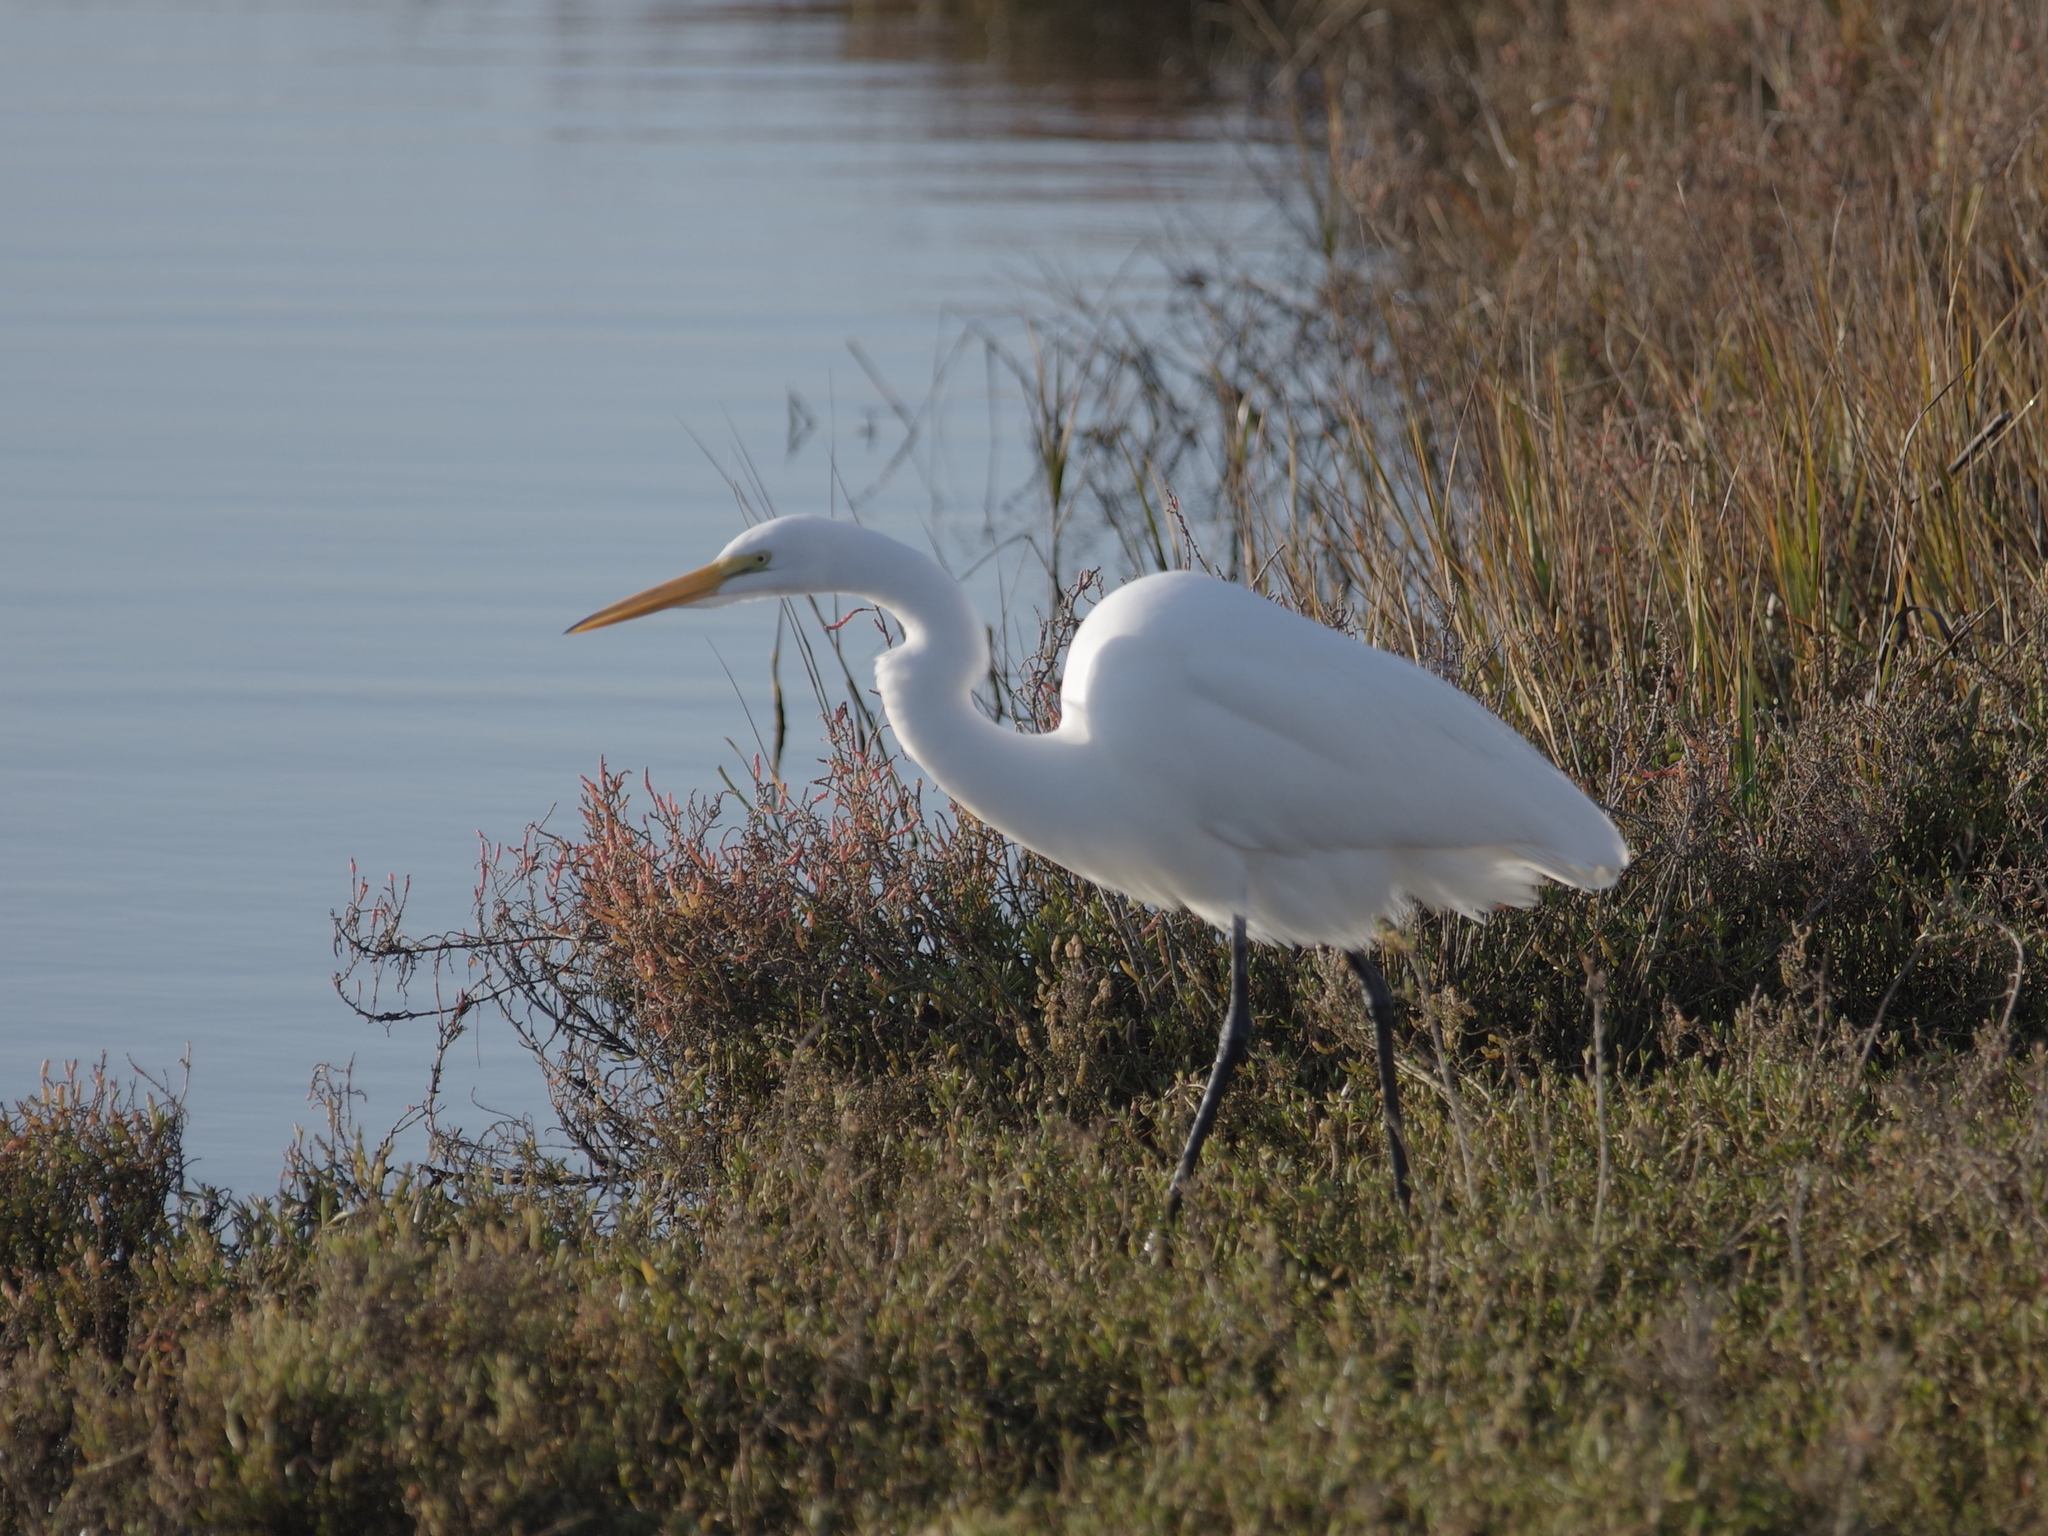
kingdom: Animalia
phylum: Chordata
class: Aves
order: Pelecaniformes
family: Ardeidae
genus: Ardea
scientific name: Ardea alba
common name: Great egret
